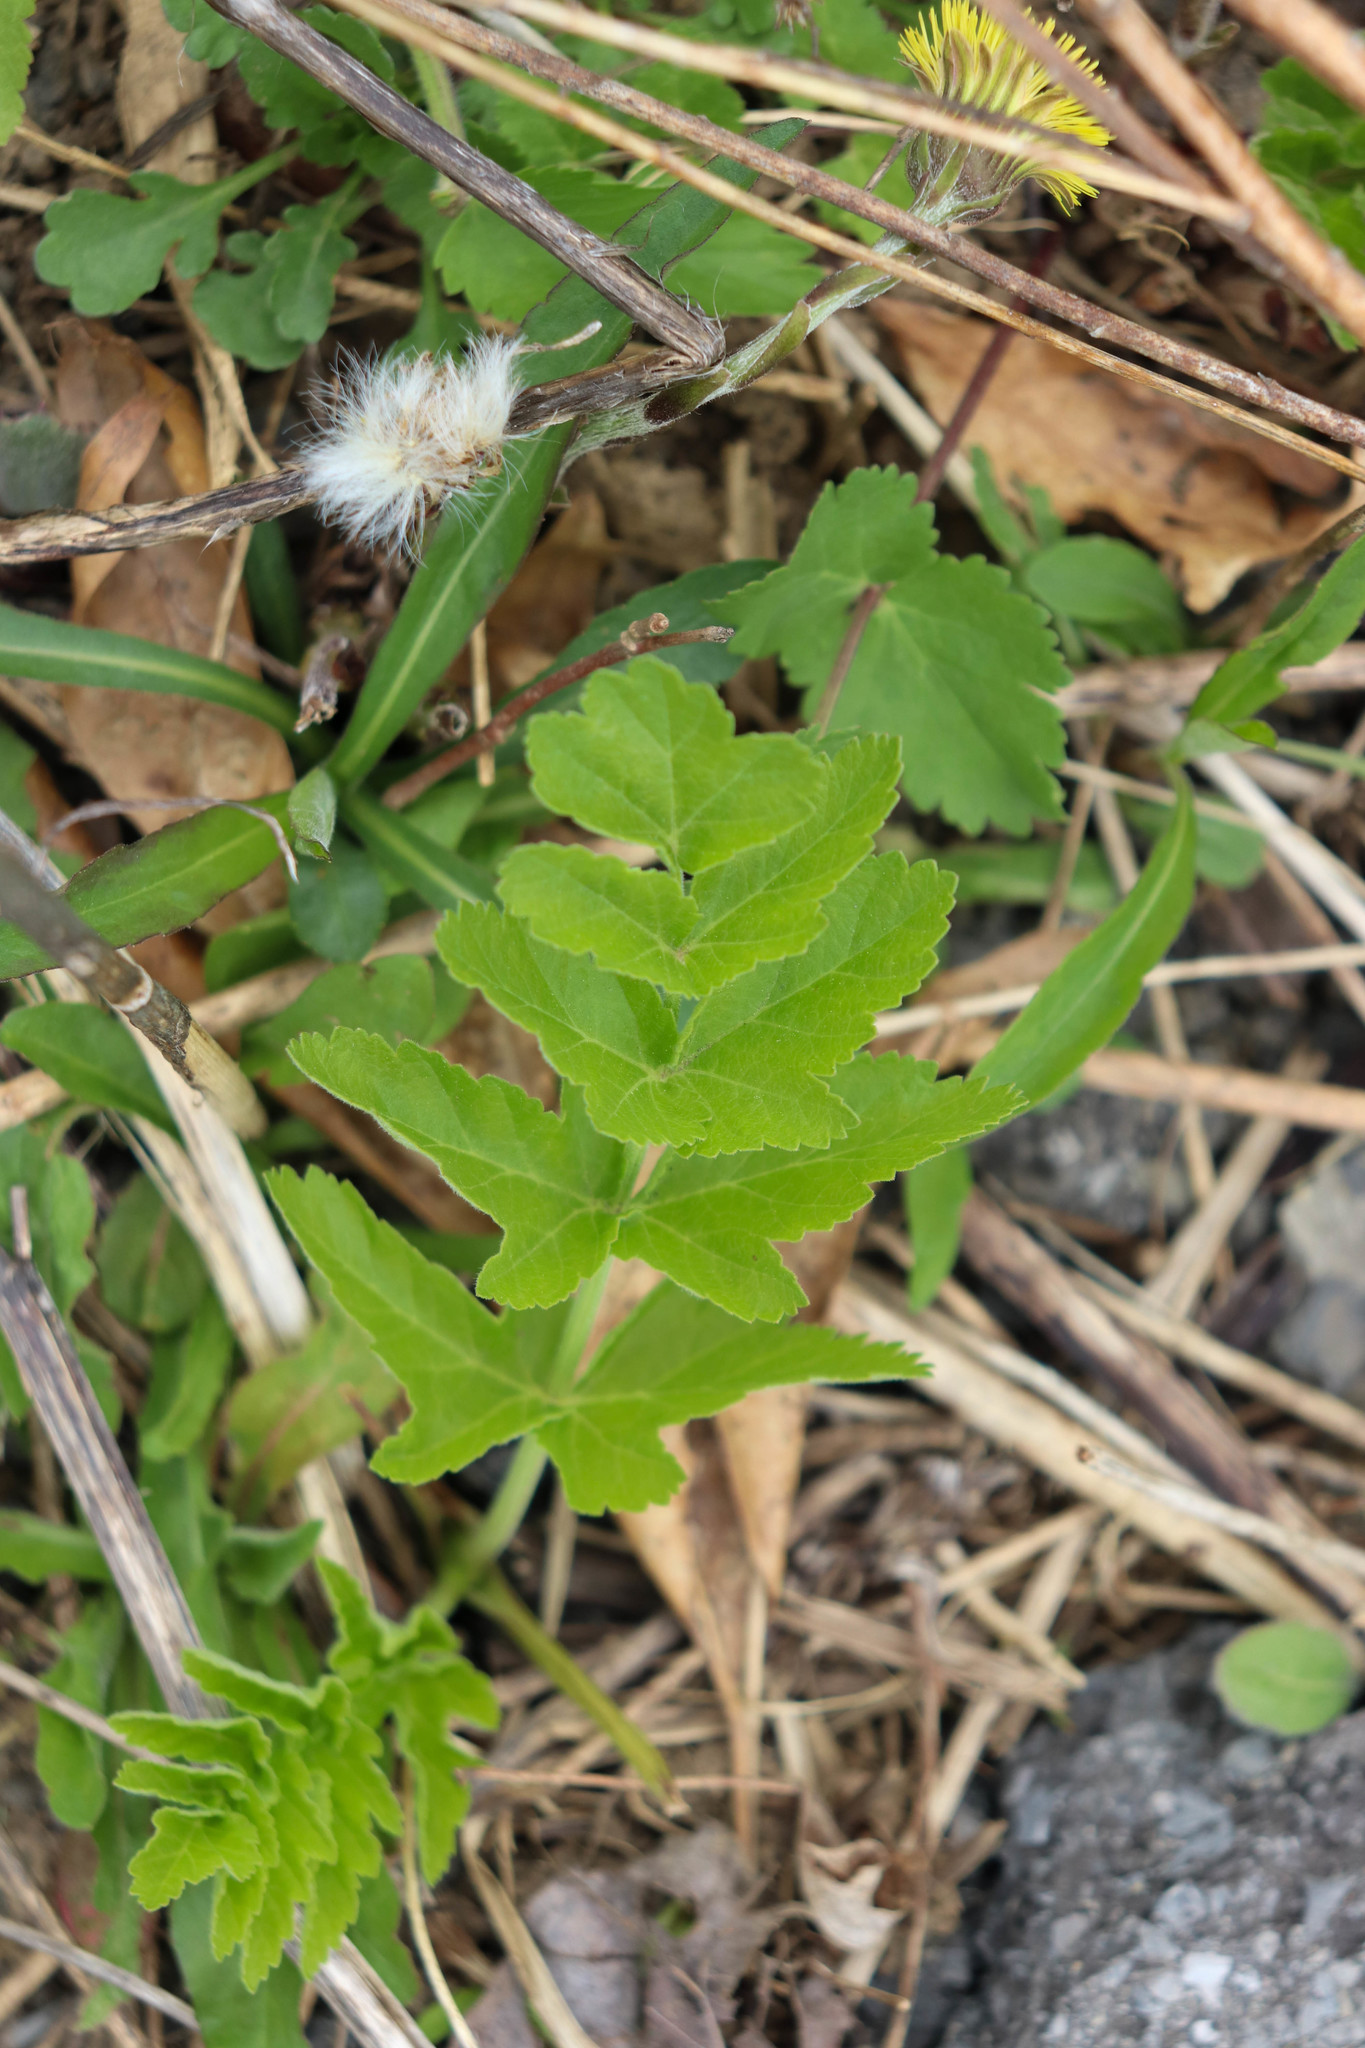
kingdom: Plantae
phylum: Tracheophyta
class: Magnoliopsida
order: Apiales
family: Apiaceae
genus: Pastinaca
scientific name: Pastinaca sativa
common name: Wild parsnip
